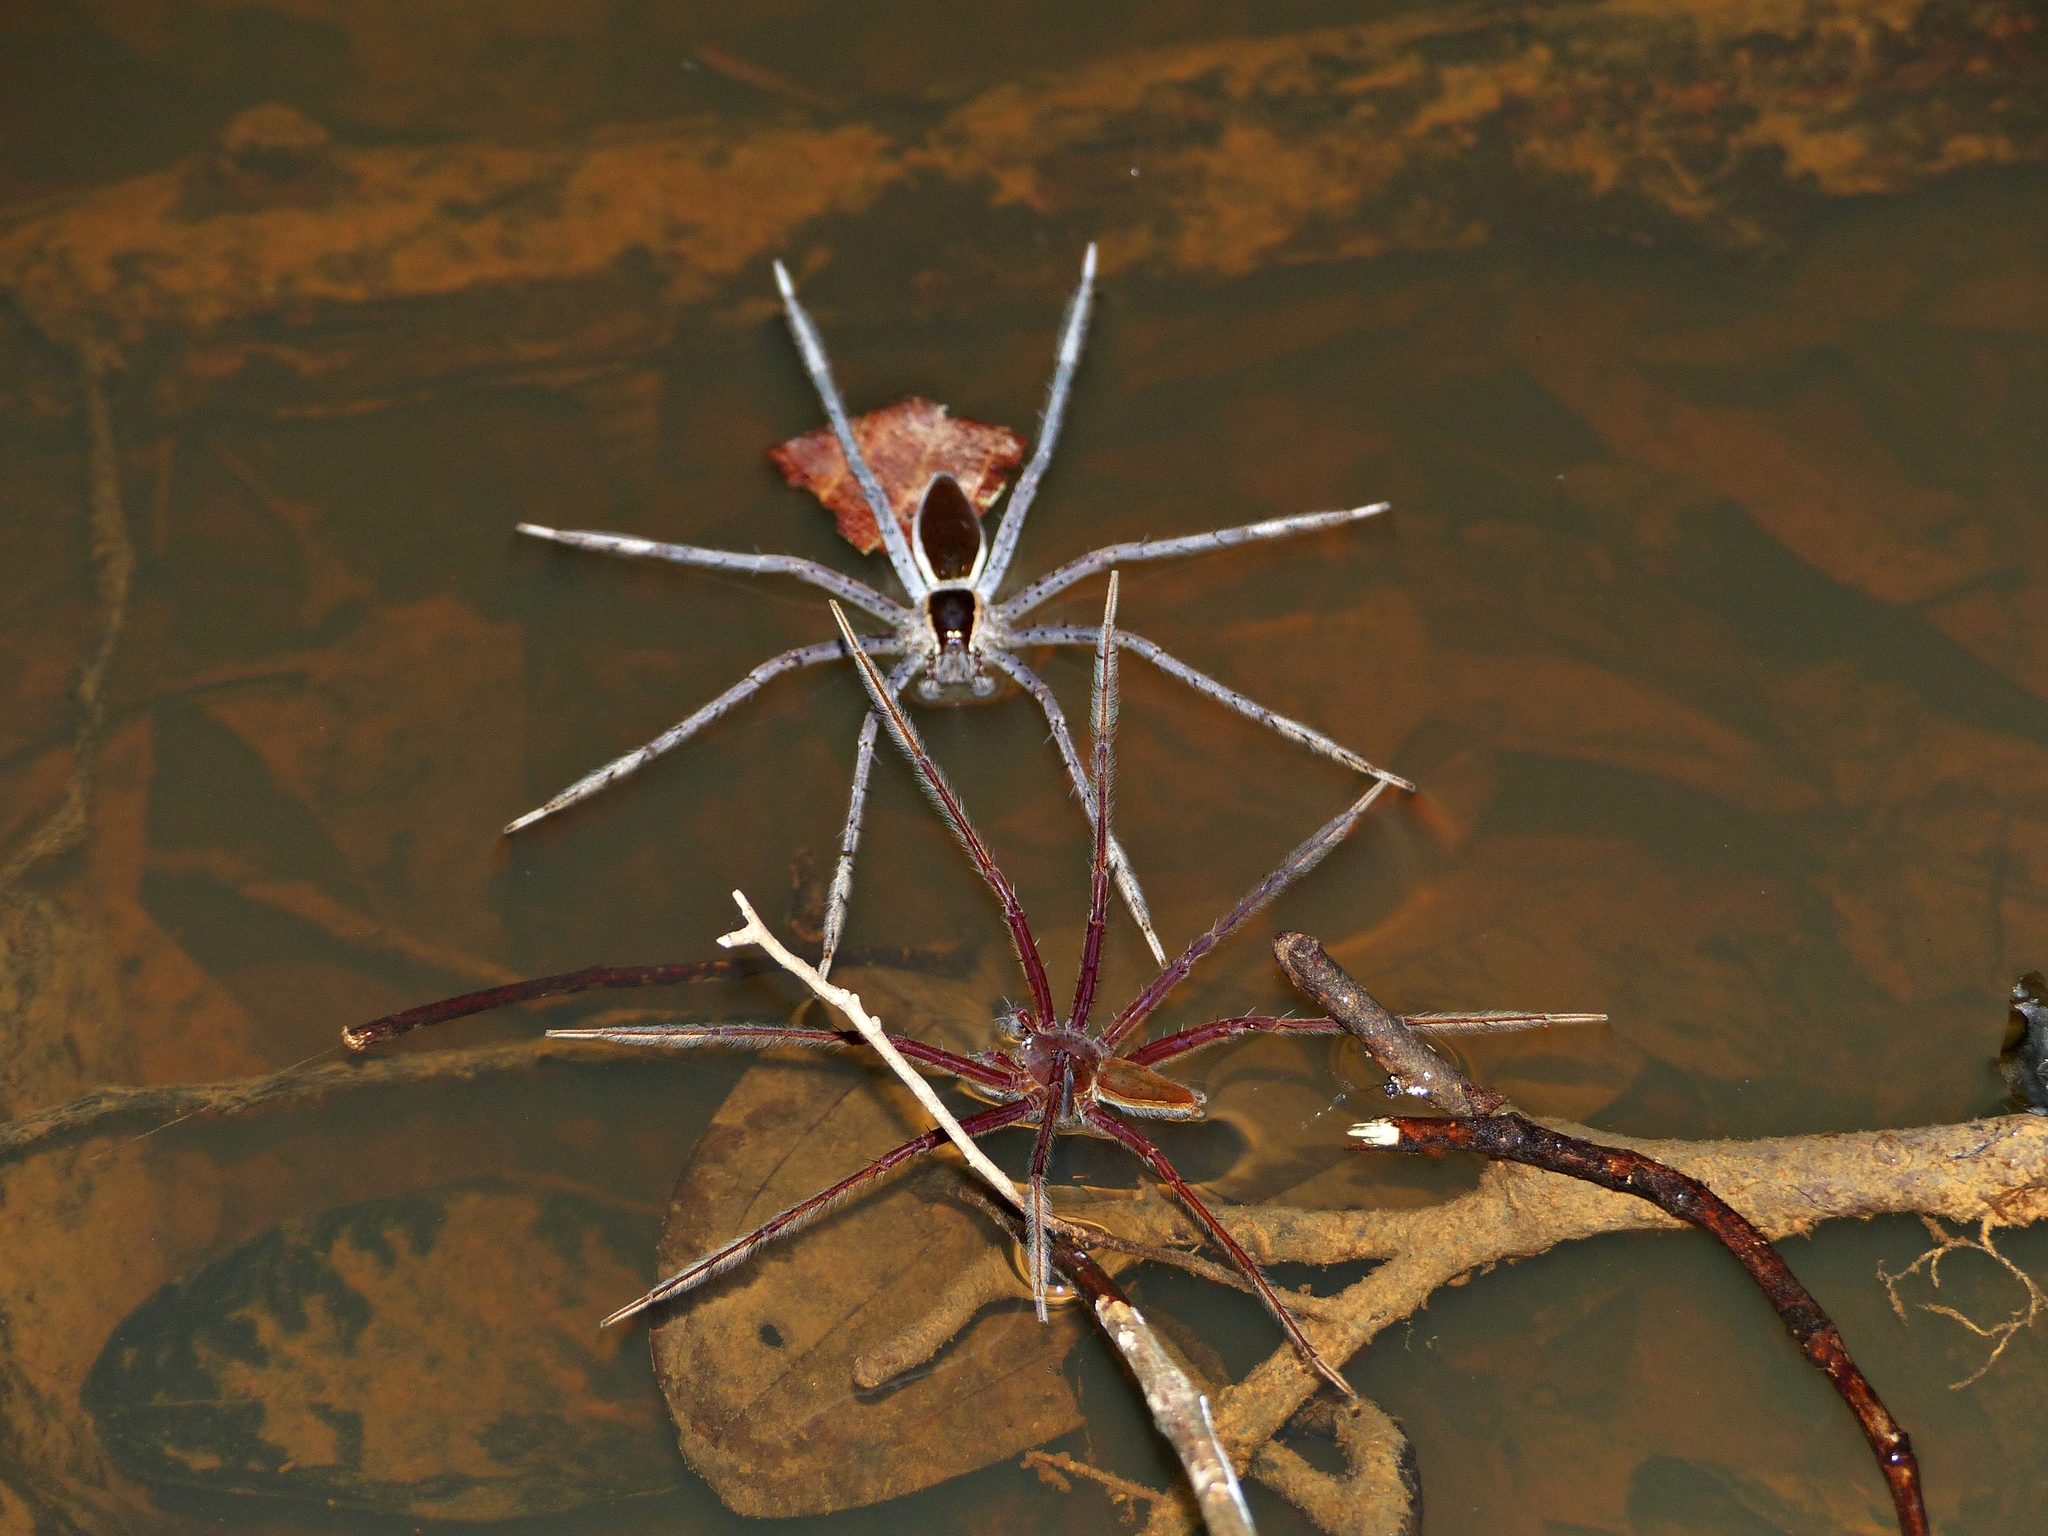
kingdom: Animalia
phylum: Arthropoda
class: Arachnida
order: Araneae
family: Pisauridae
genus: Nilus
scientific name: Nilus albocinctus
